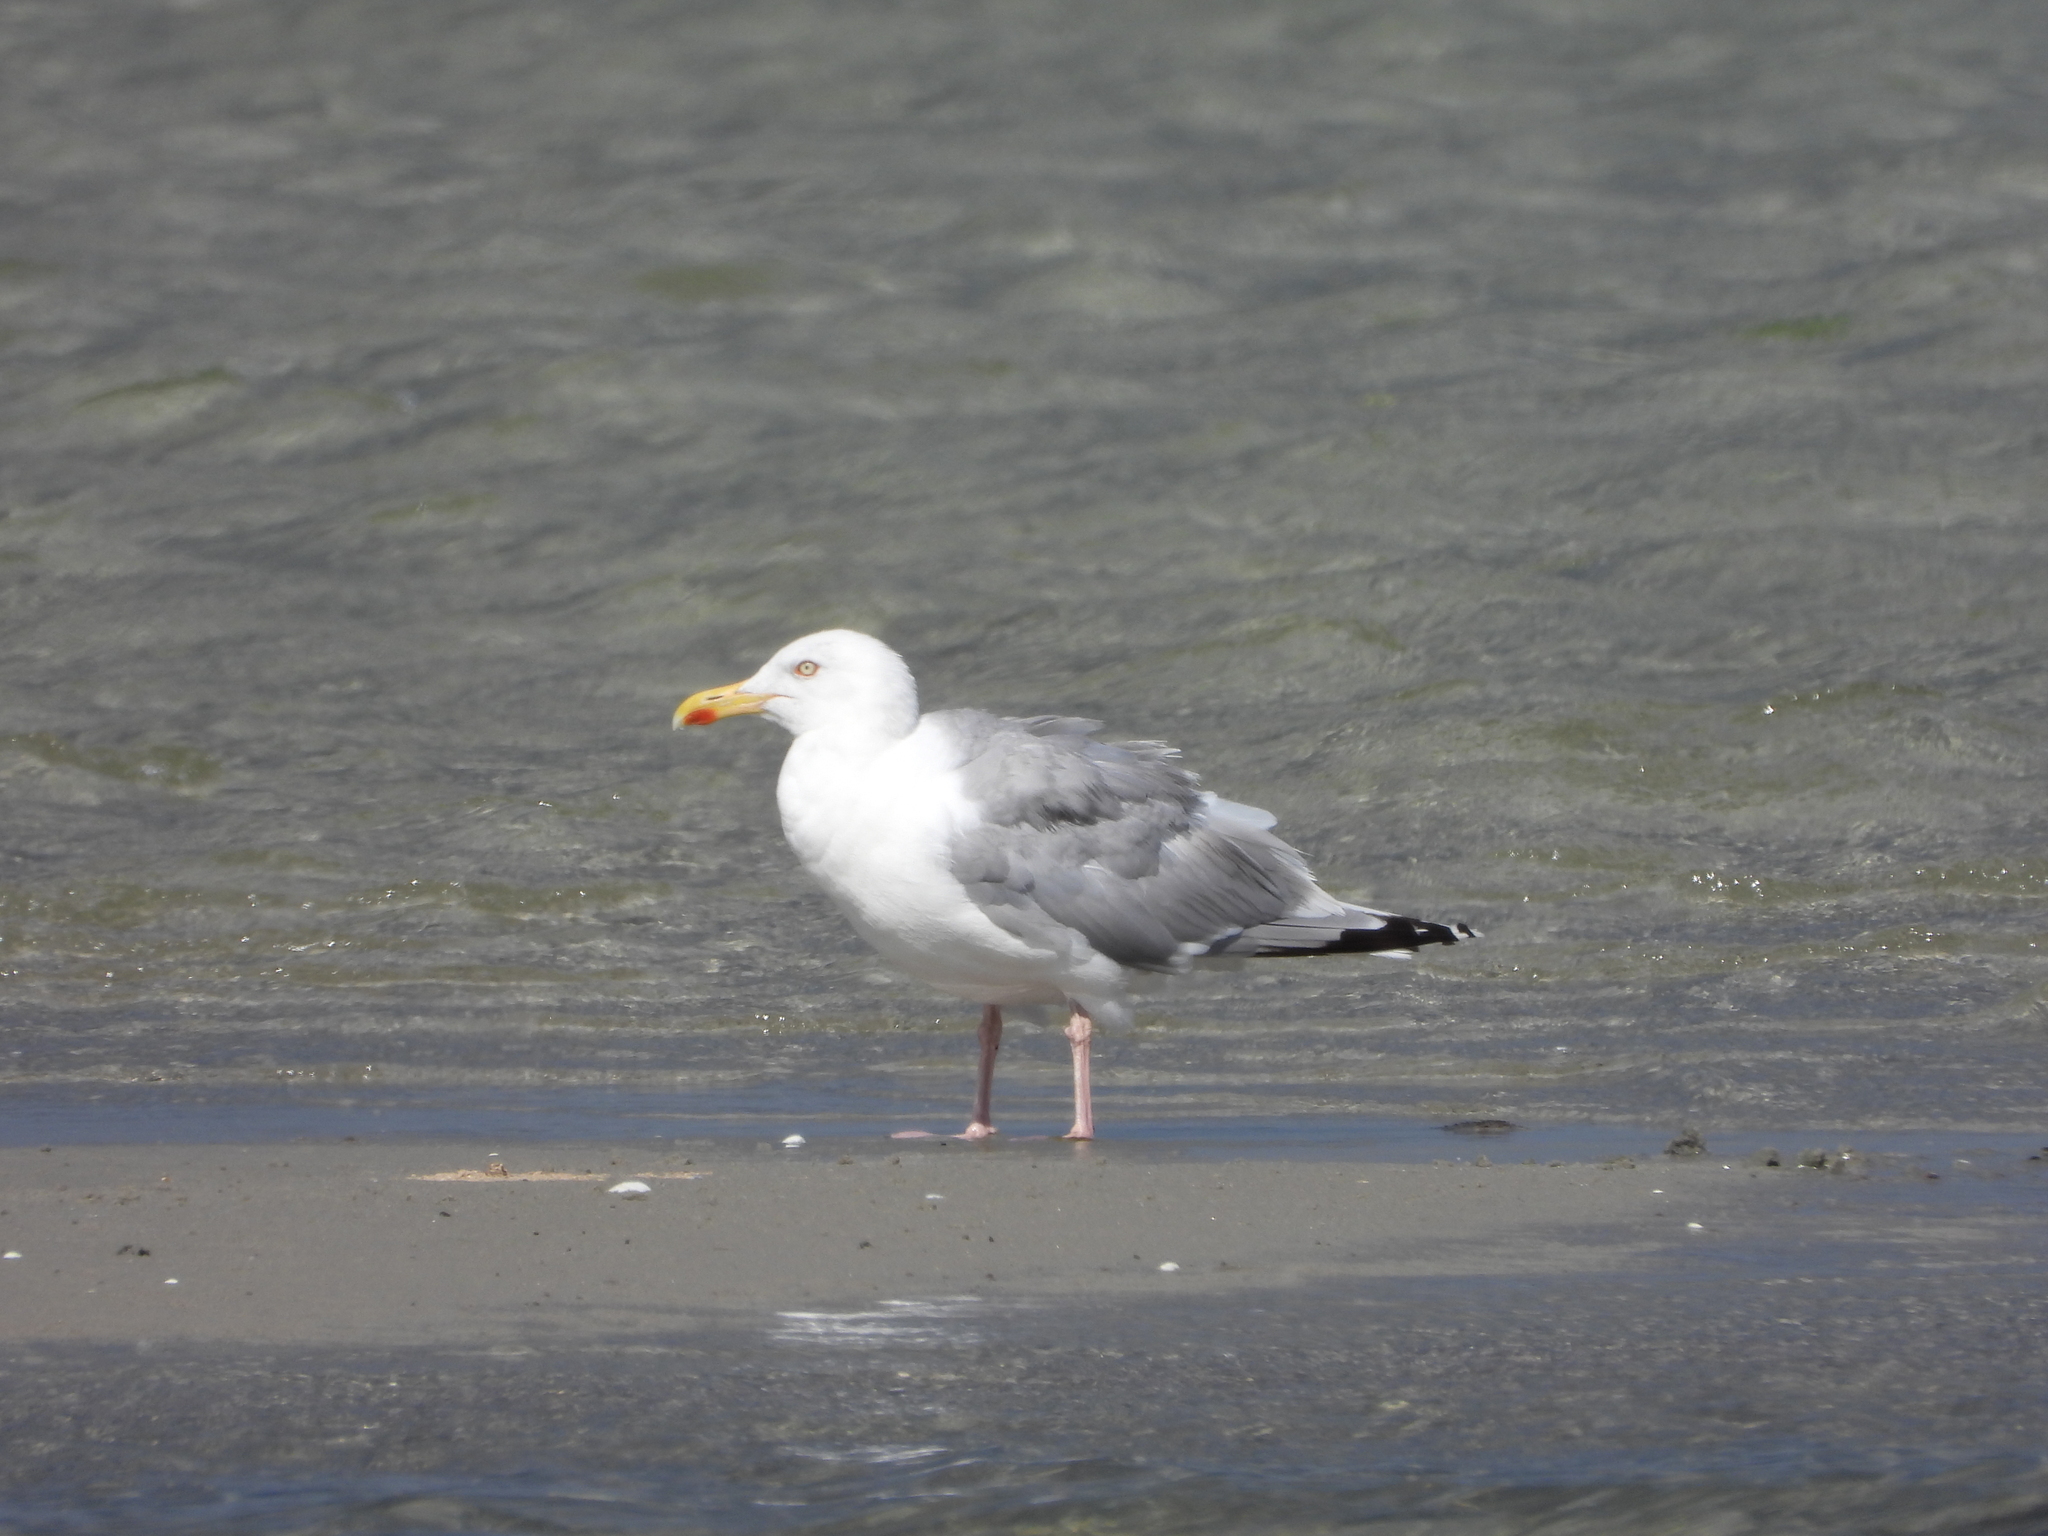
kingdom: Animalia
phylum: Chordata
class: Aves
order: Charadriiformes
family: Laridae
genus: Larus
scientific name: Larus argentatus
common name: Herring gull
